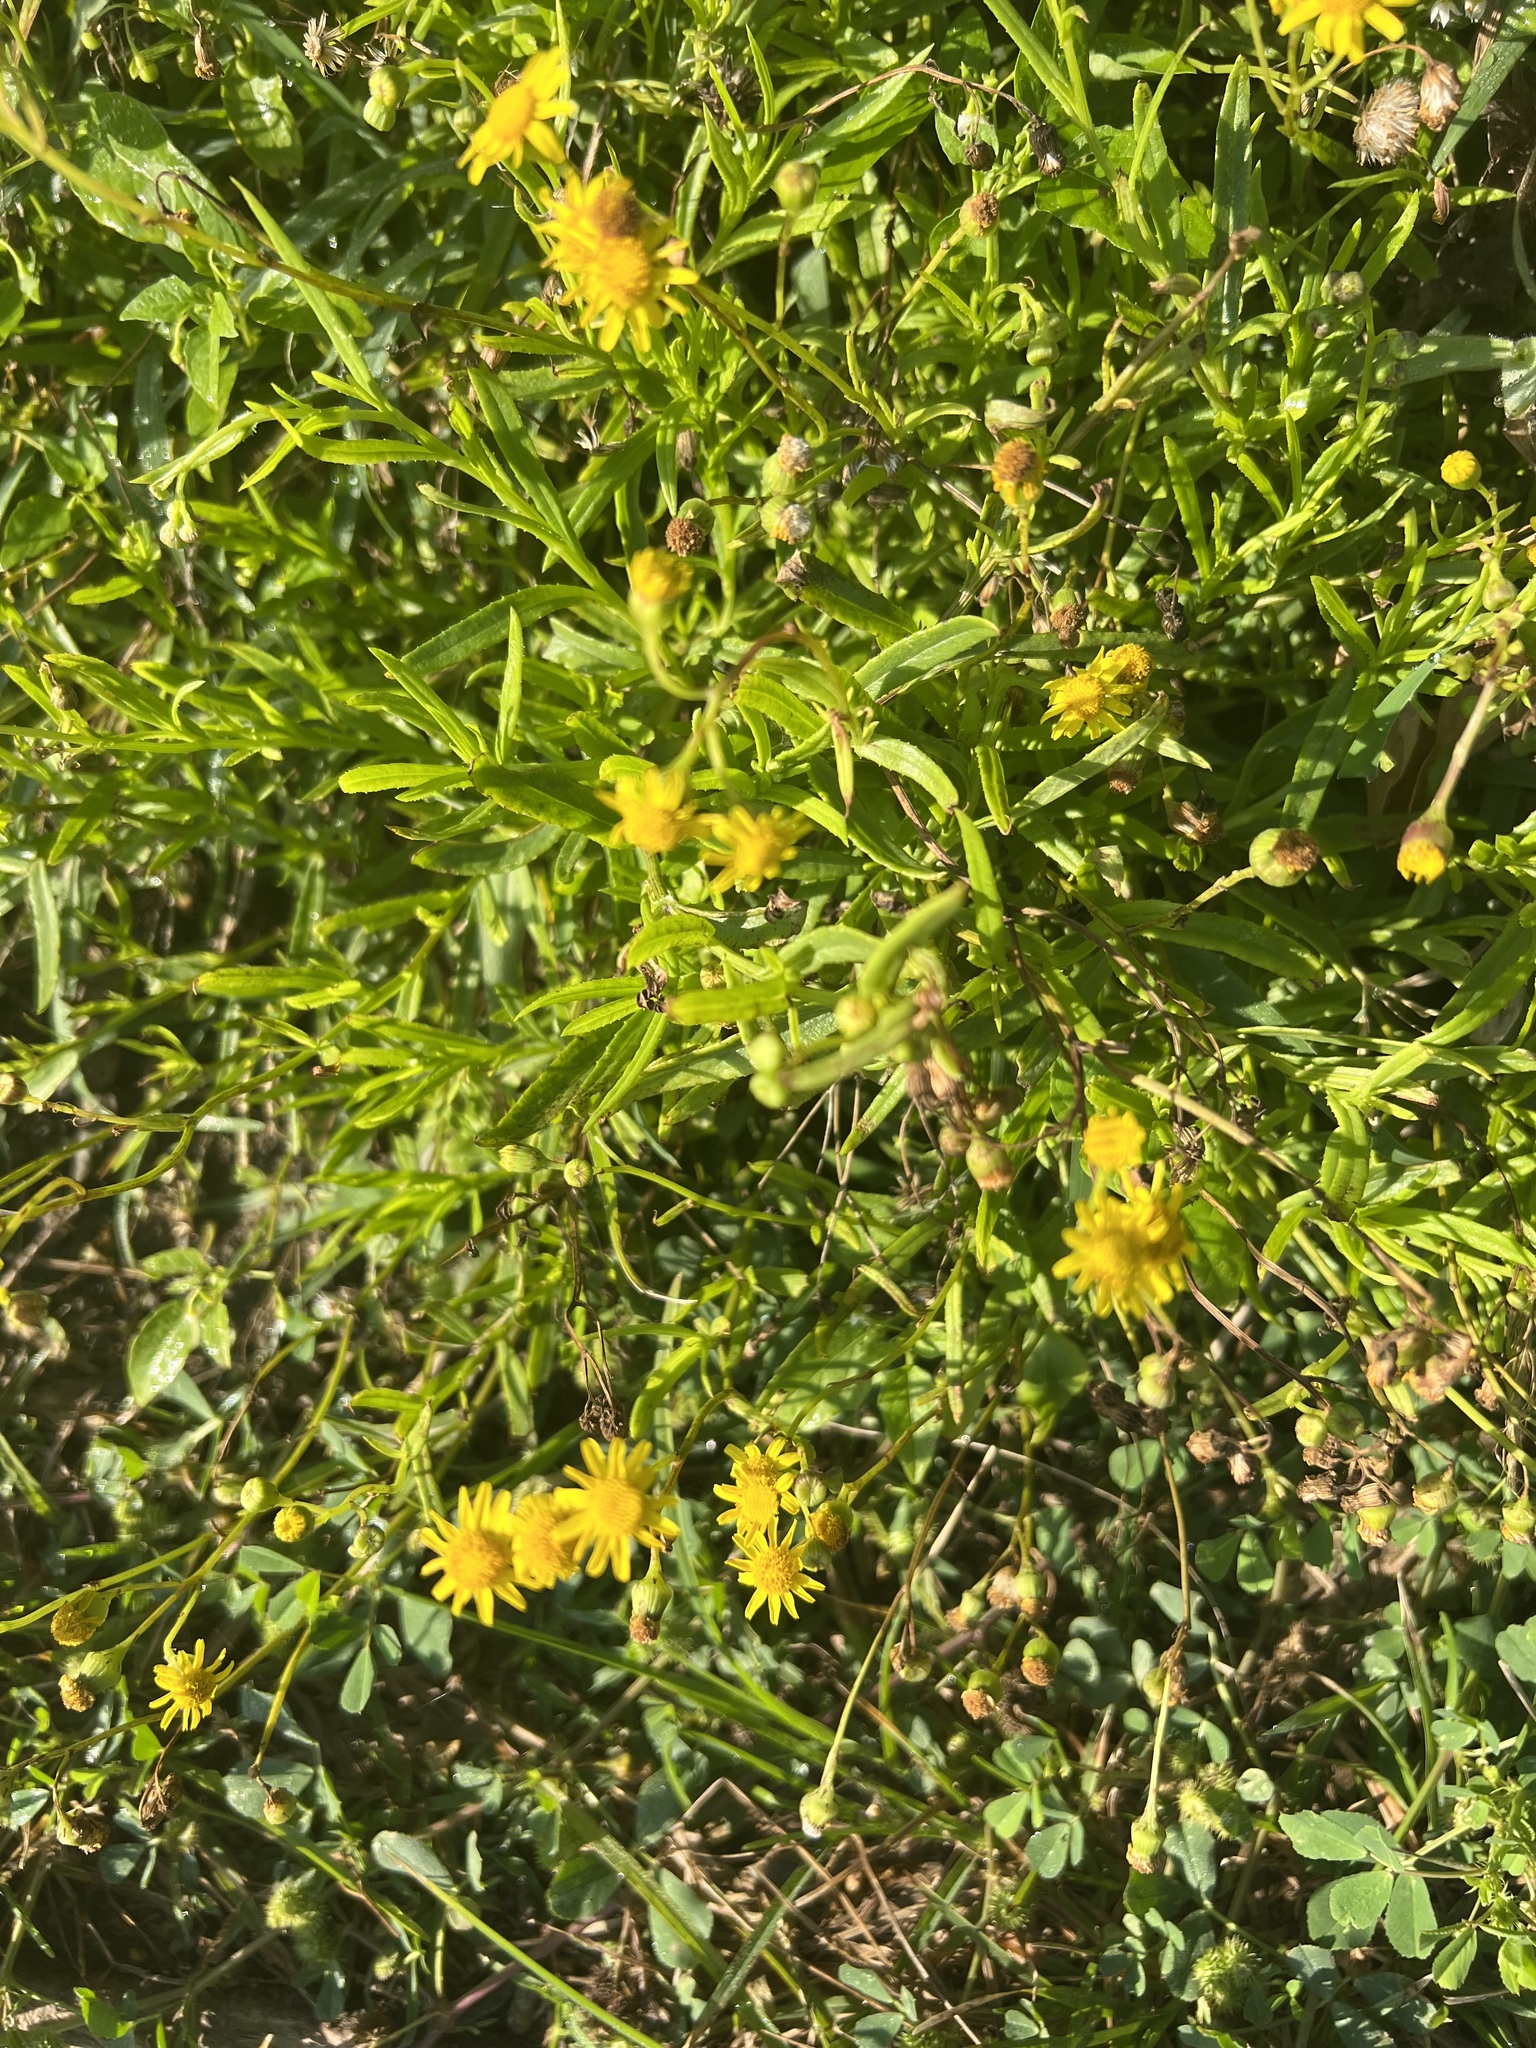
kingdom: Plantae
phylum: Tracheophyta
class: Magnoliopsida
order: Asterales
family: Asteraceae
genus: Senecio
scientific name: Senecio madagascariensis
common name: Madagascar ragwort
